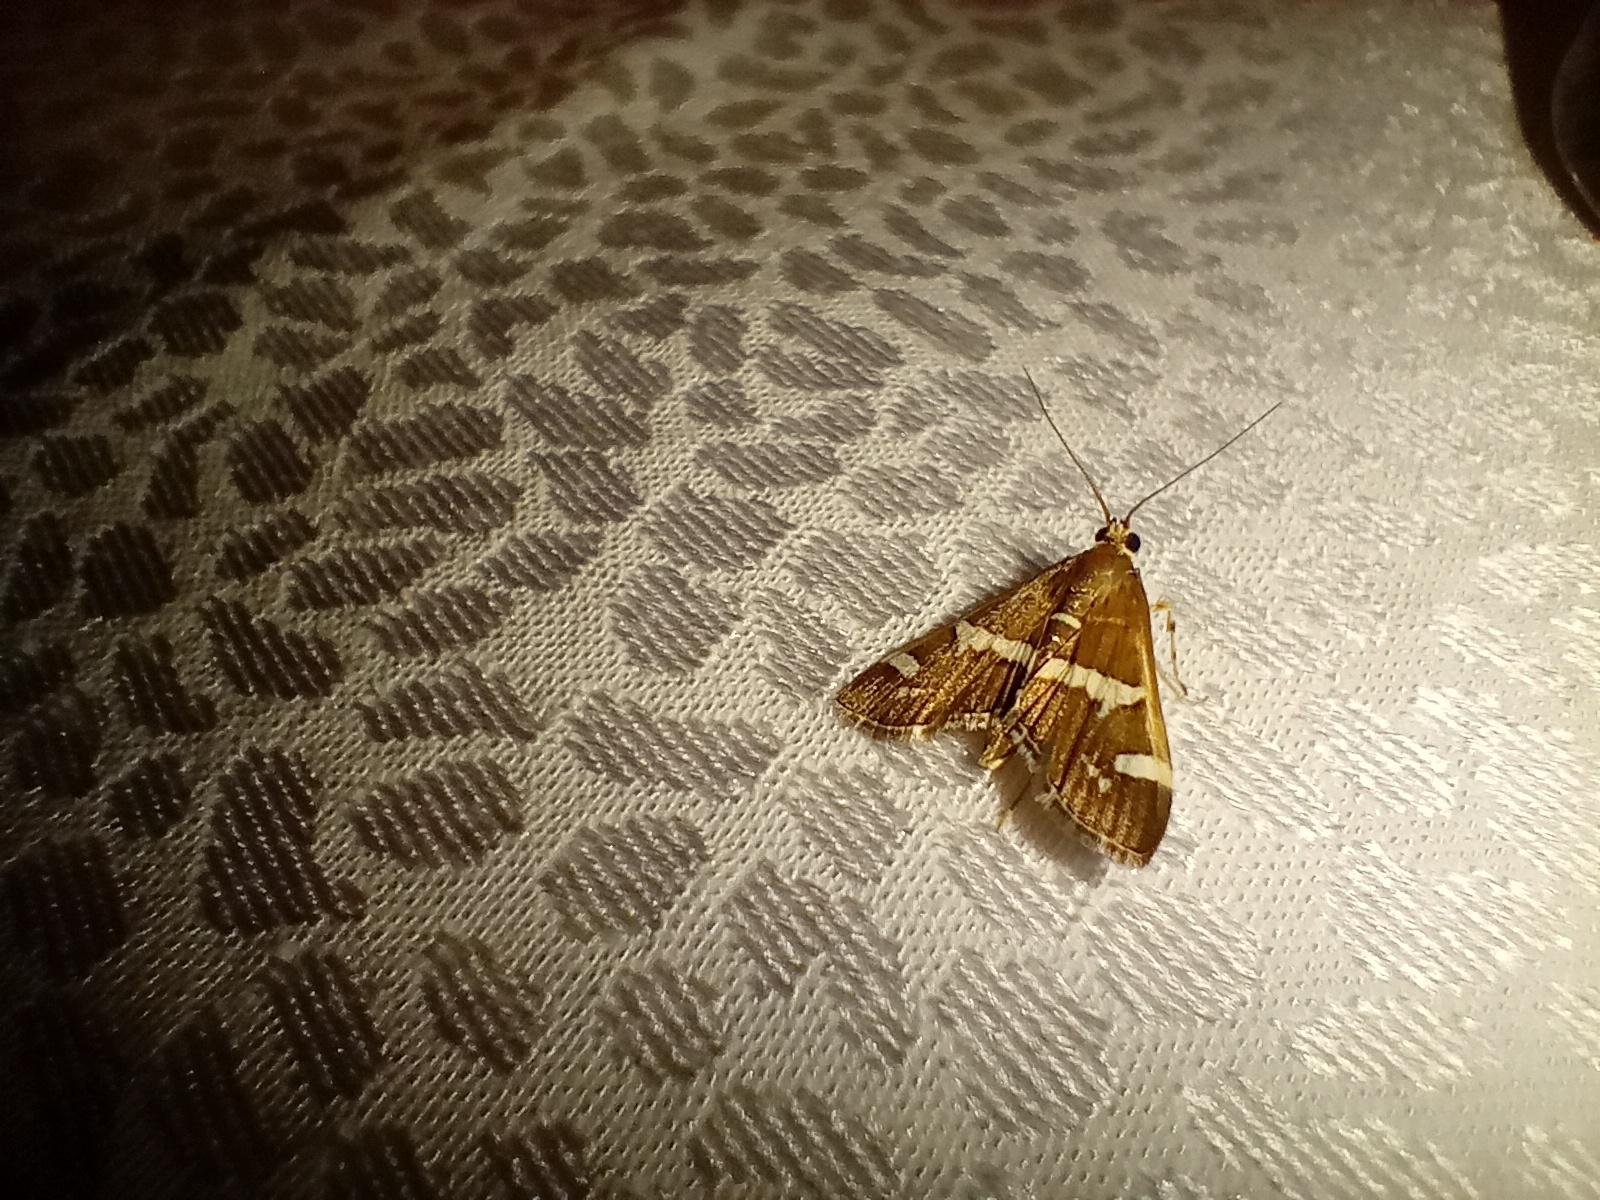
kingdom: Animalia
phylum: Arthropoda
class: Insecta
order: Lepidoptera
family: Crambidae
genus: Spoladea
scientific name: Spoladea recurvalis
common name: Beet webworm moth
